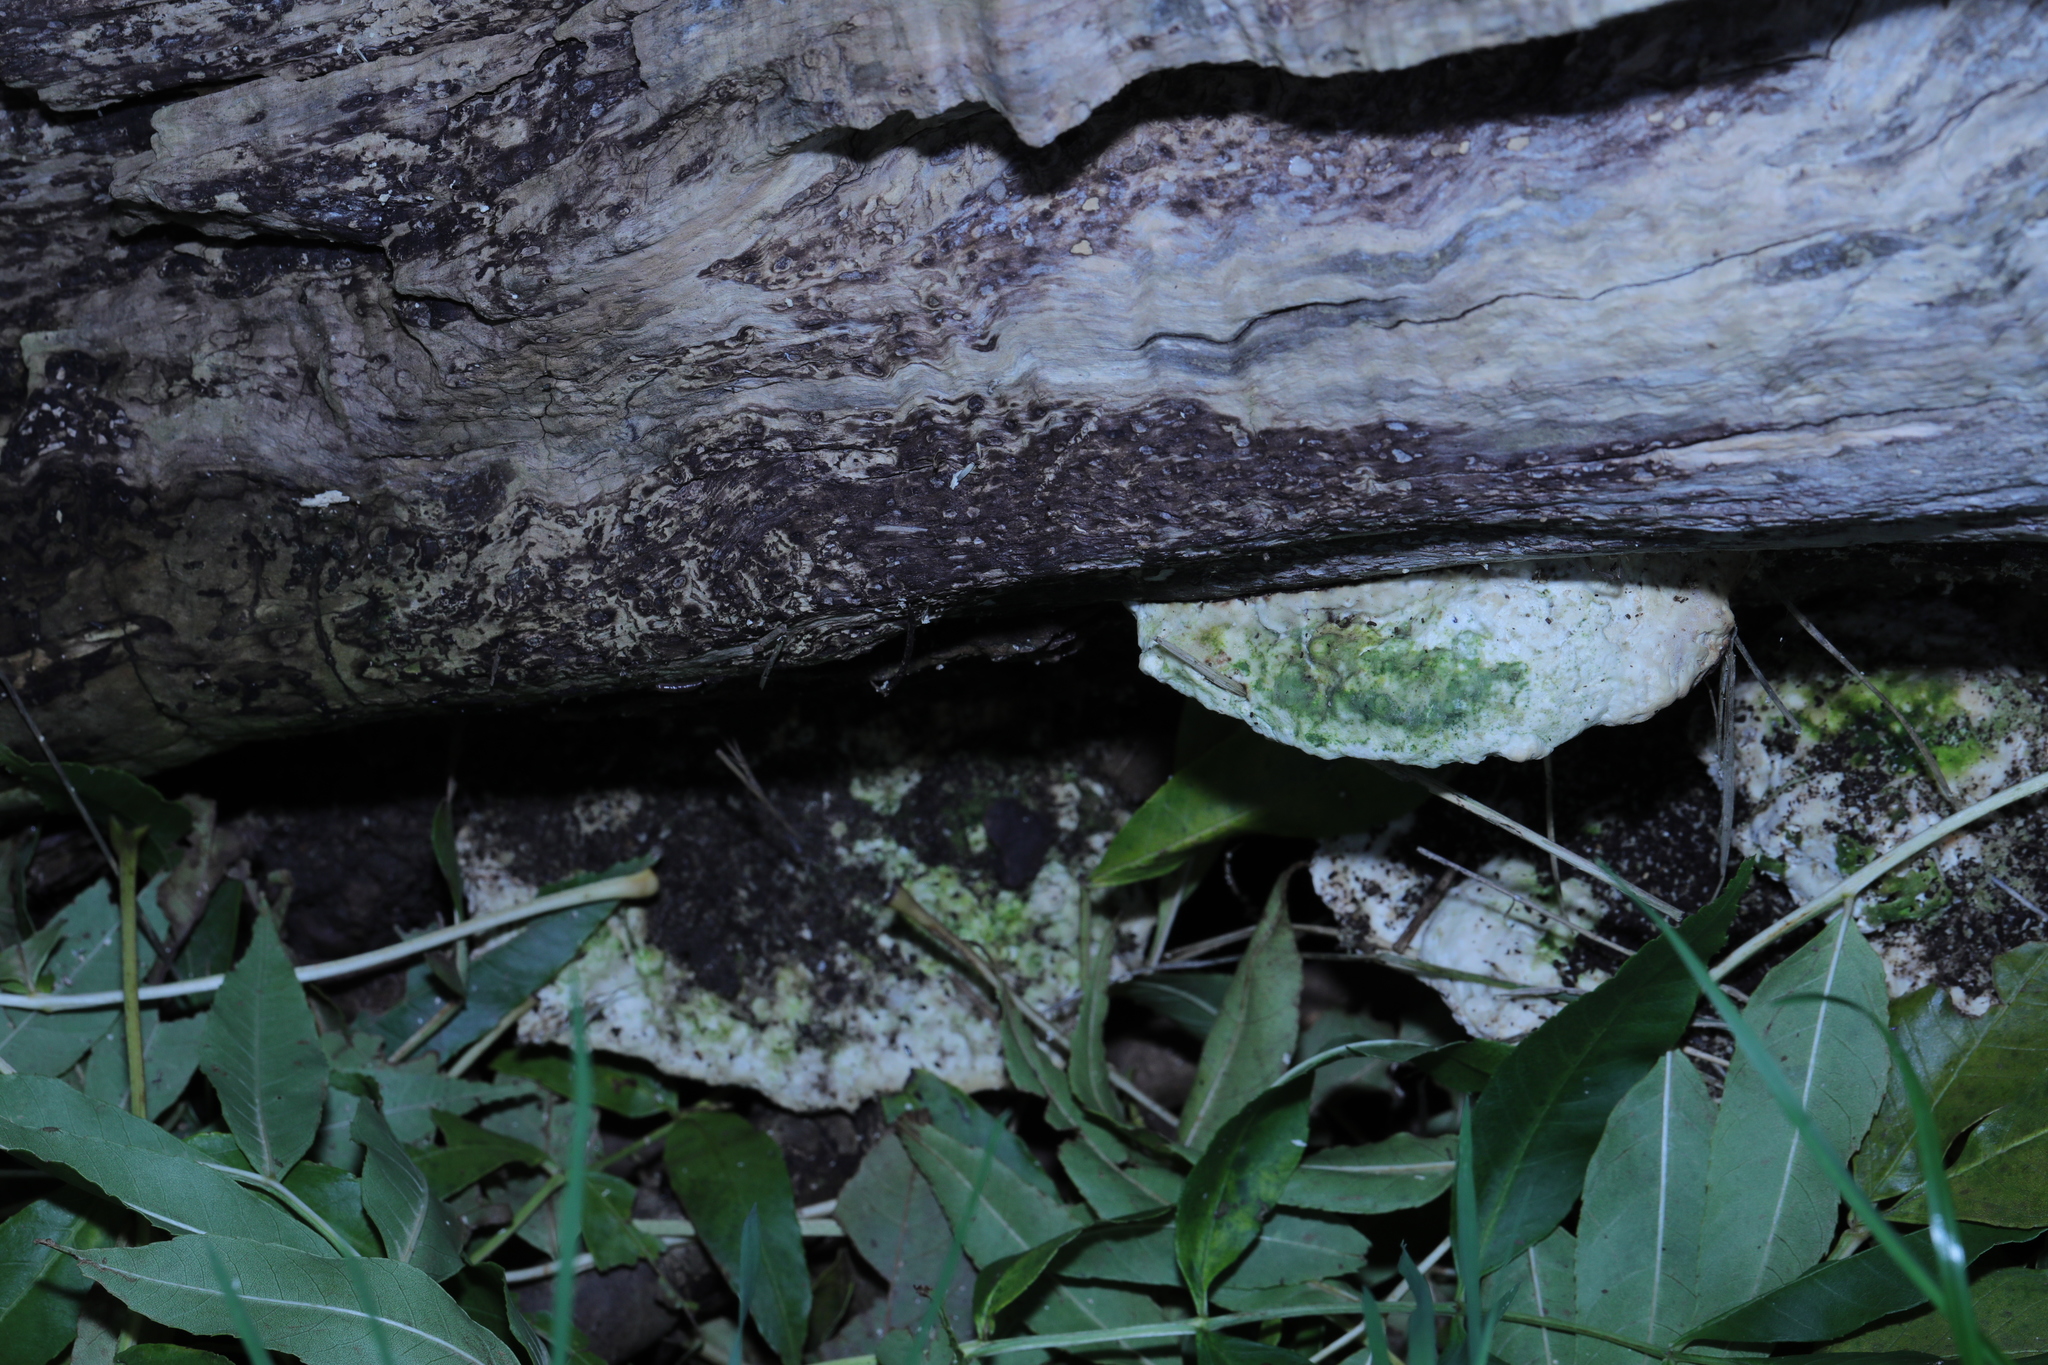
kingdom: Fungi
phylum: Basidiomycota
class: Agaricomycetes
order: Polyporales
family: Polyporaceae
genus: Trametes
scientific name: Trametes gibbosa
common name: Lumpy bracket
